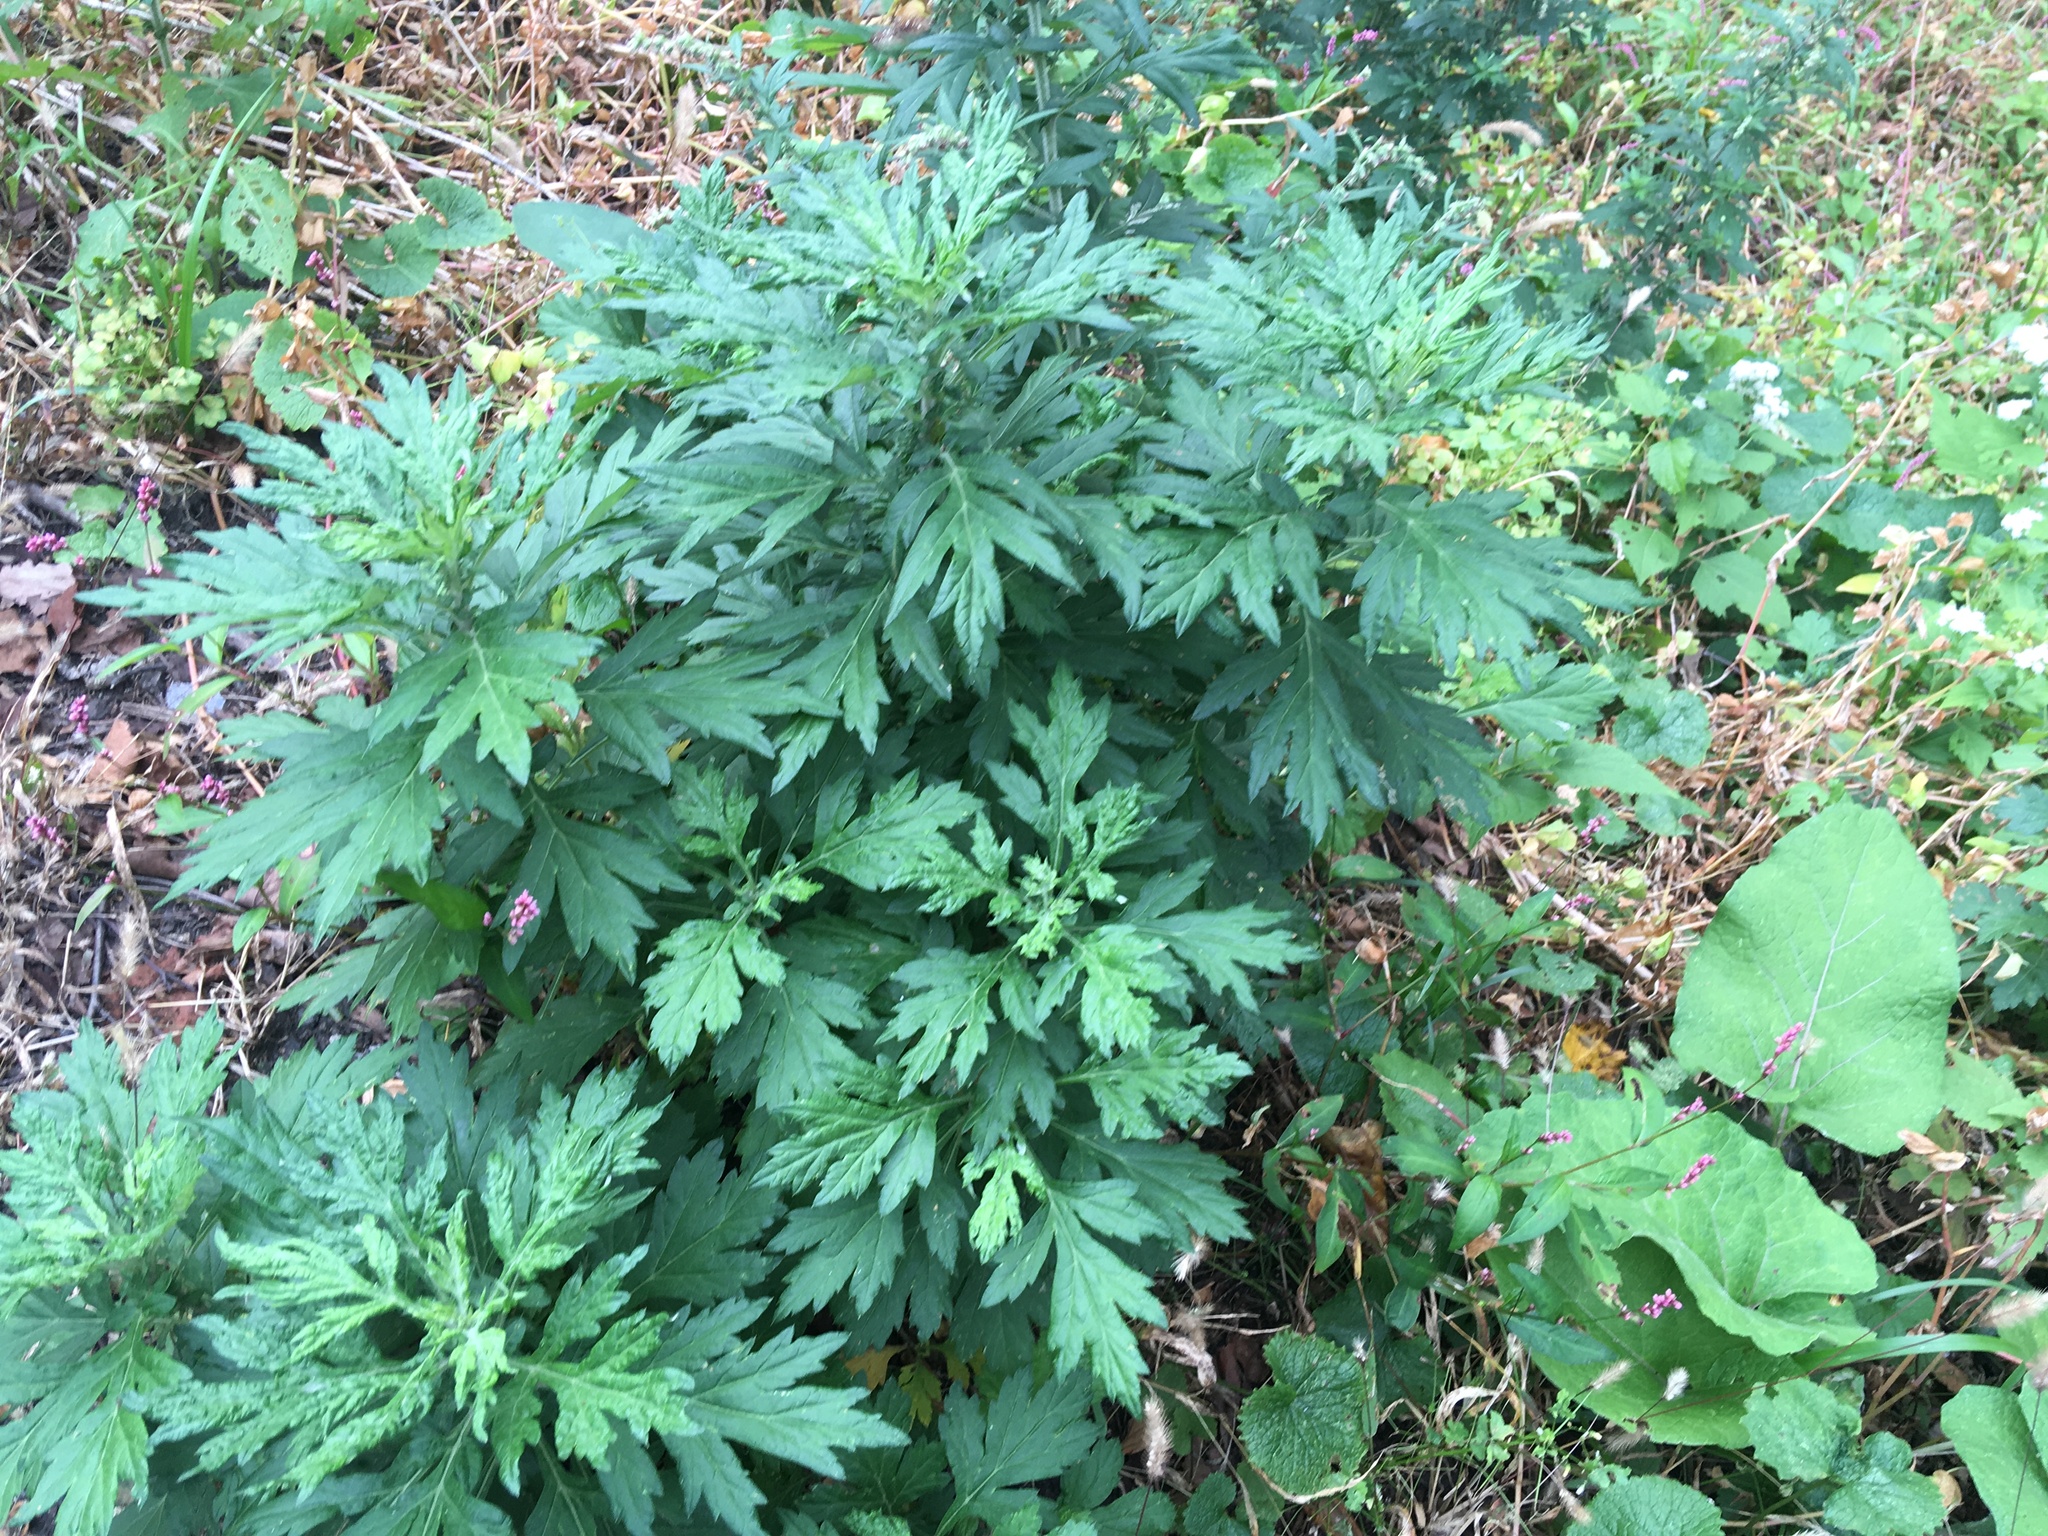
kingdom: Plantae
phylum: Tracheophyta
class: Magnoliopsida
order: Asterales
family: Asteraceae
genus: Artemisia
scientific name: Artemisia vulgaris
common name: Mugwort
